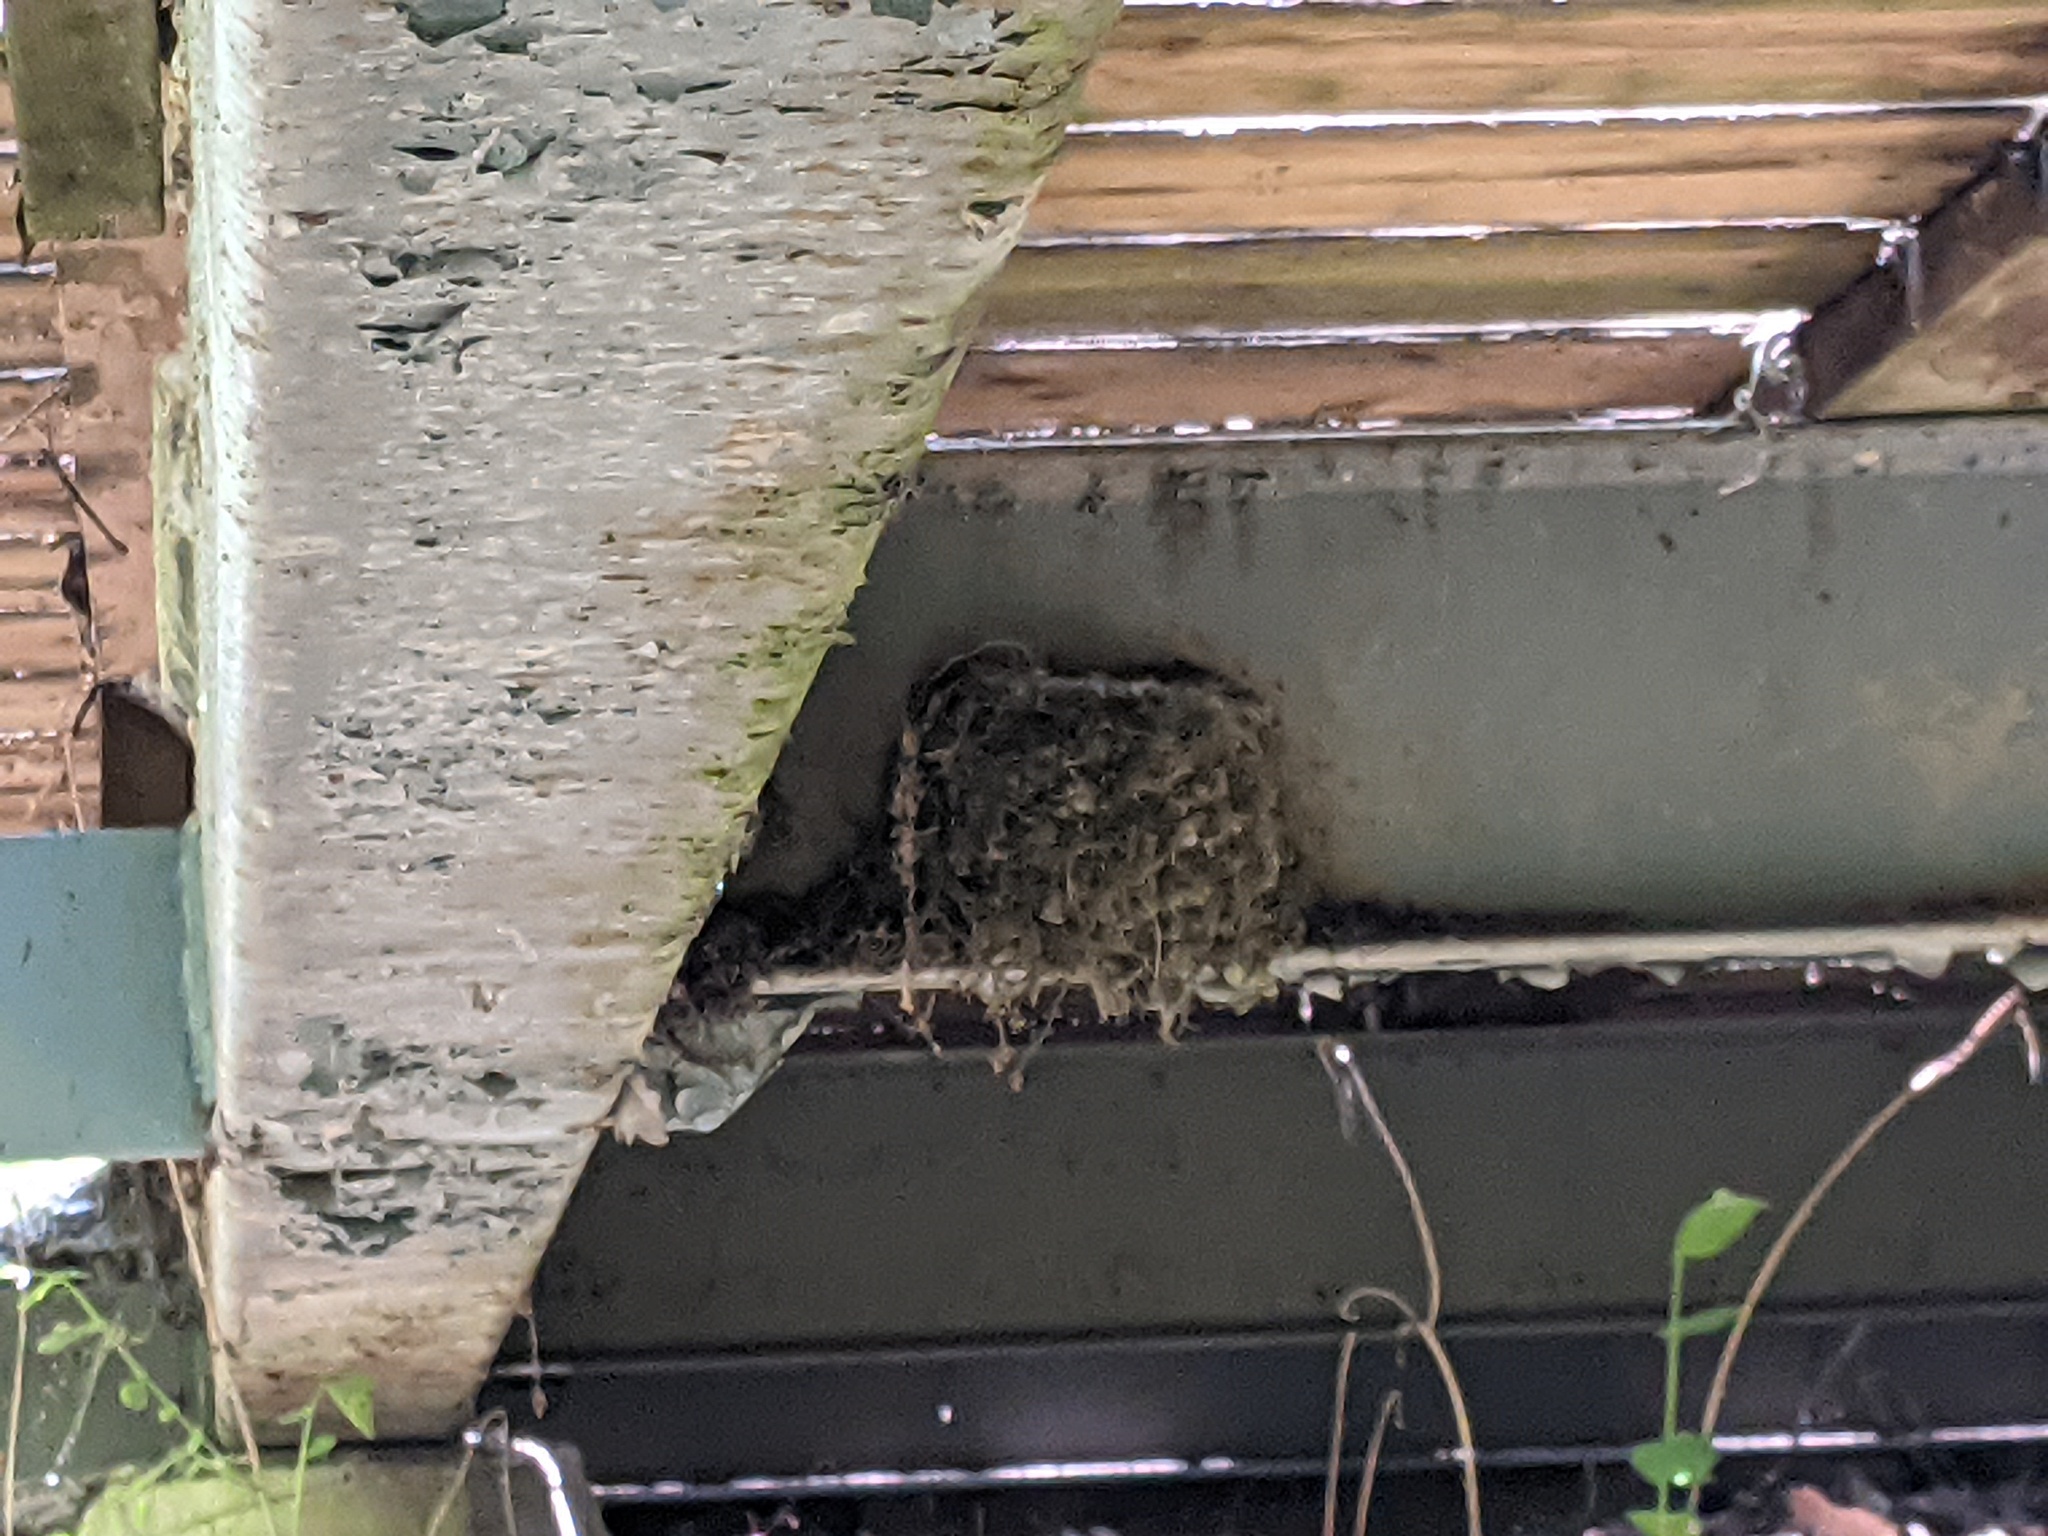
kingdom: Animalia
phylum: Chordata
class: Aves
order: Passeriformes
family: Tyrannidae
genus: Sayornis
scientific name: Sayornis phoebe
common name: Eastern phoebe
